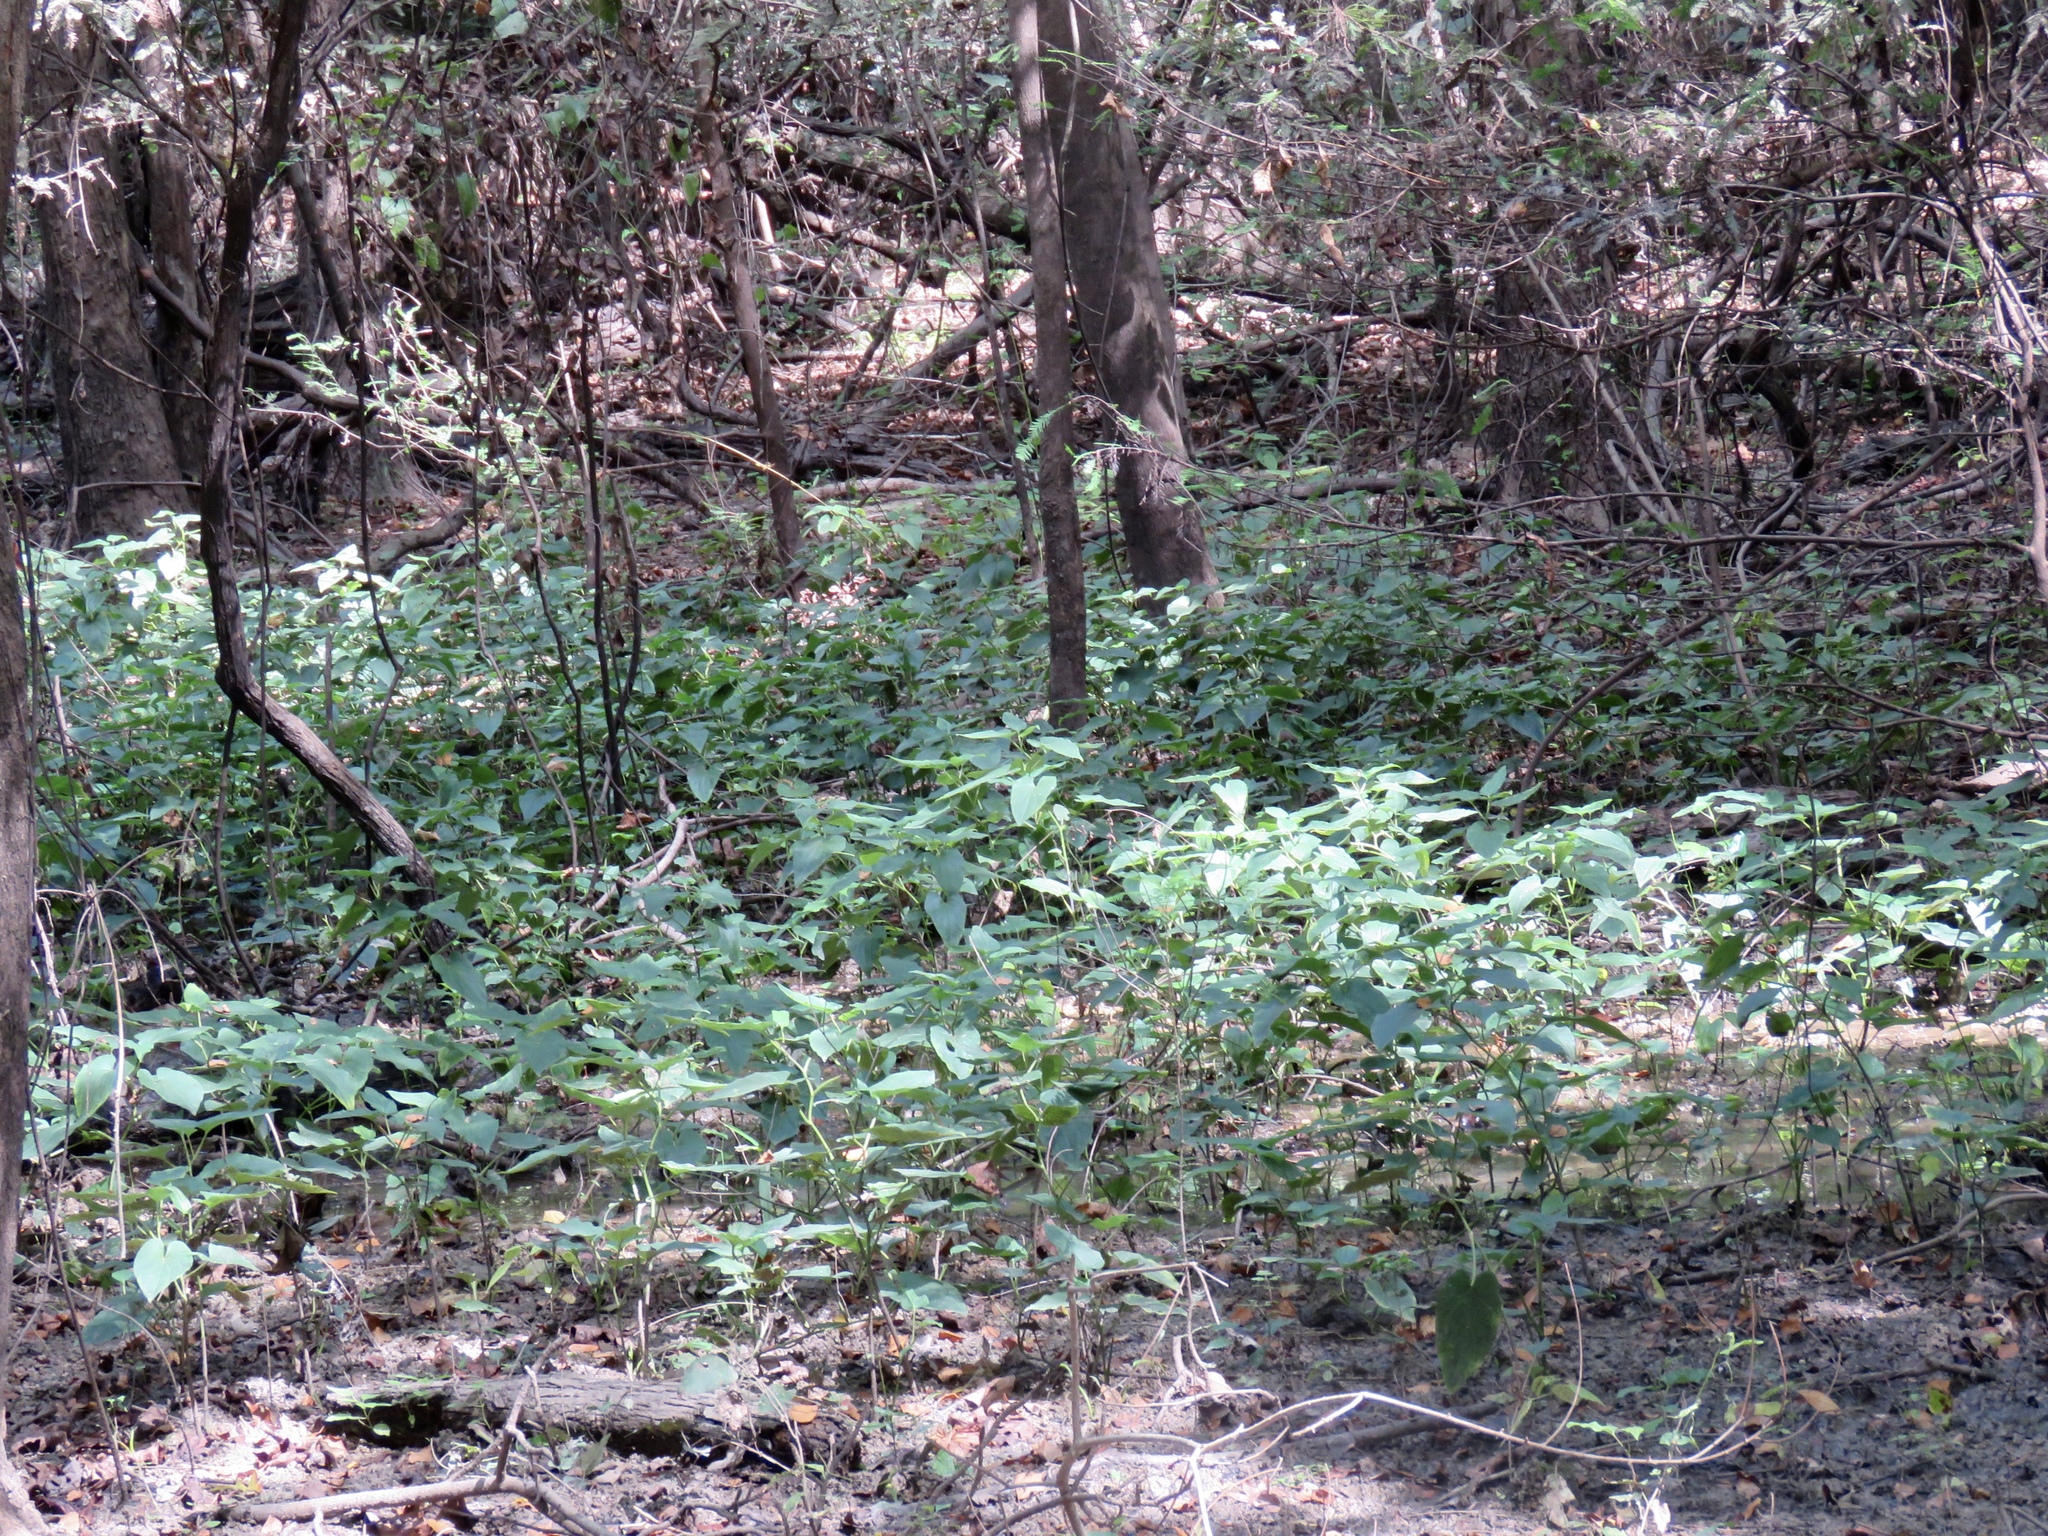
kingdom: Plantae
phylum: Tracheophyta
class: Magnoliopsida
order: Piperales
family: Saururaceae
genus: Saururus
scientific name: Saururus cernuus
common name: Lizard's-tail
